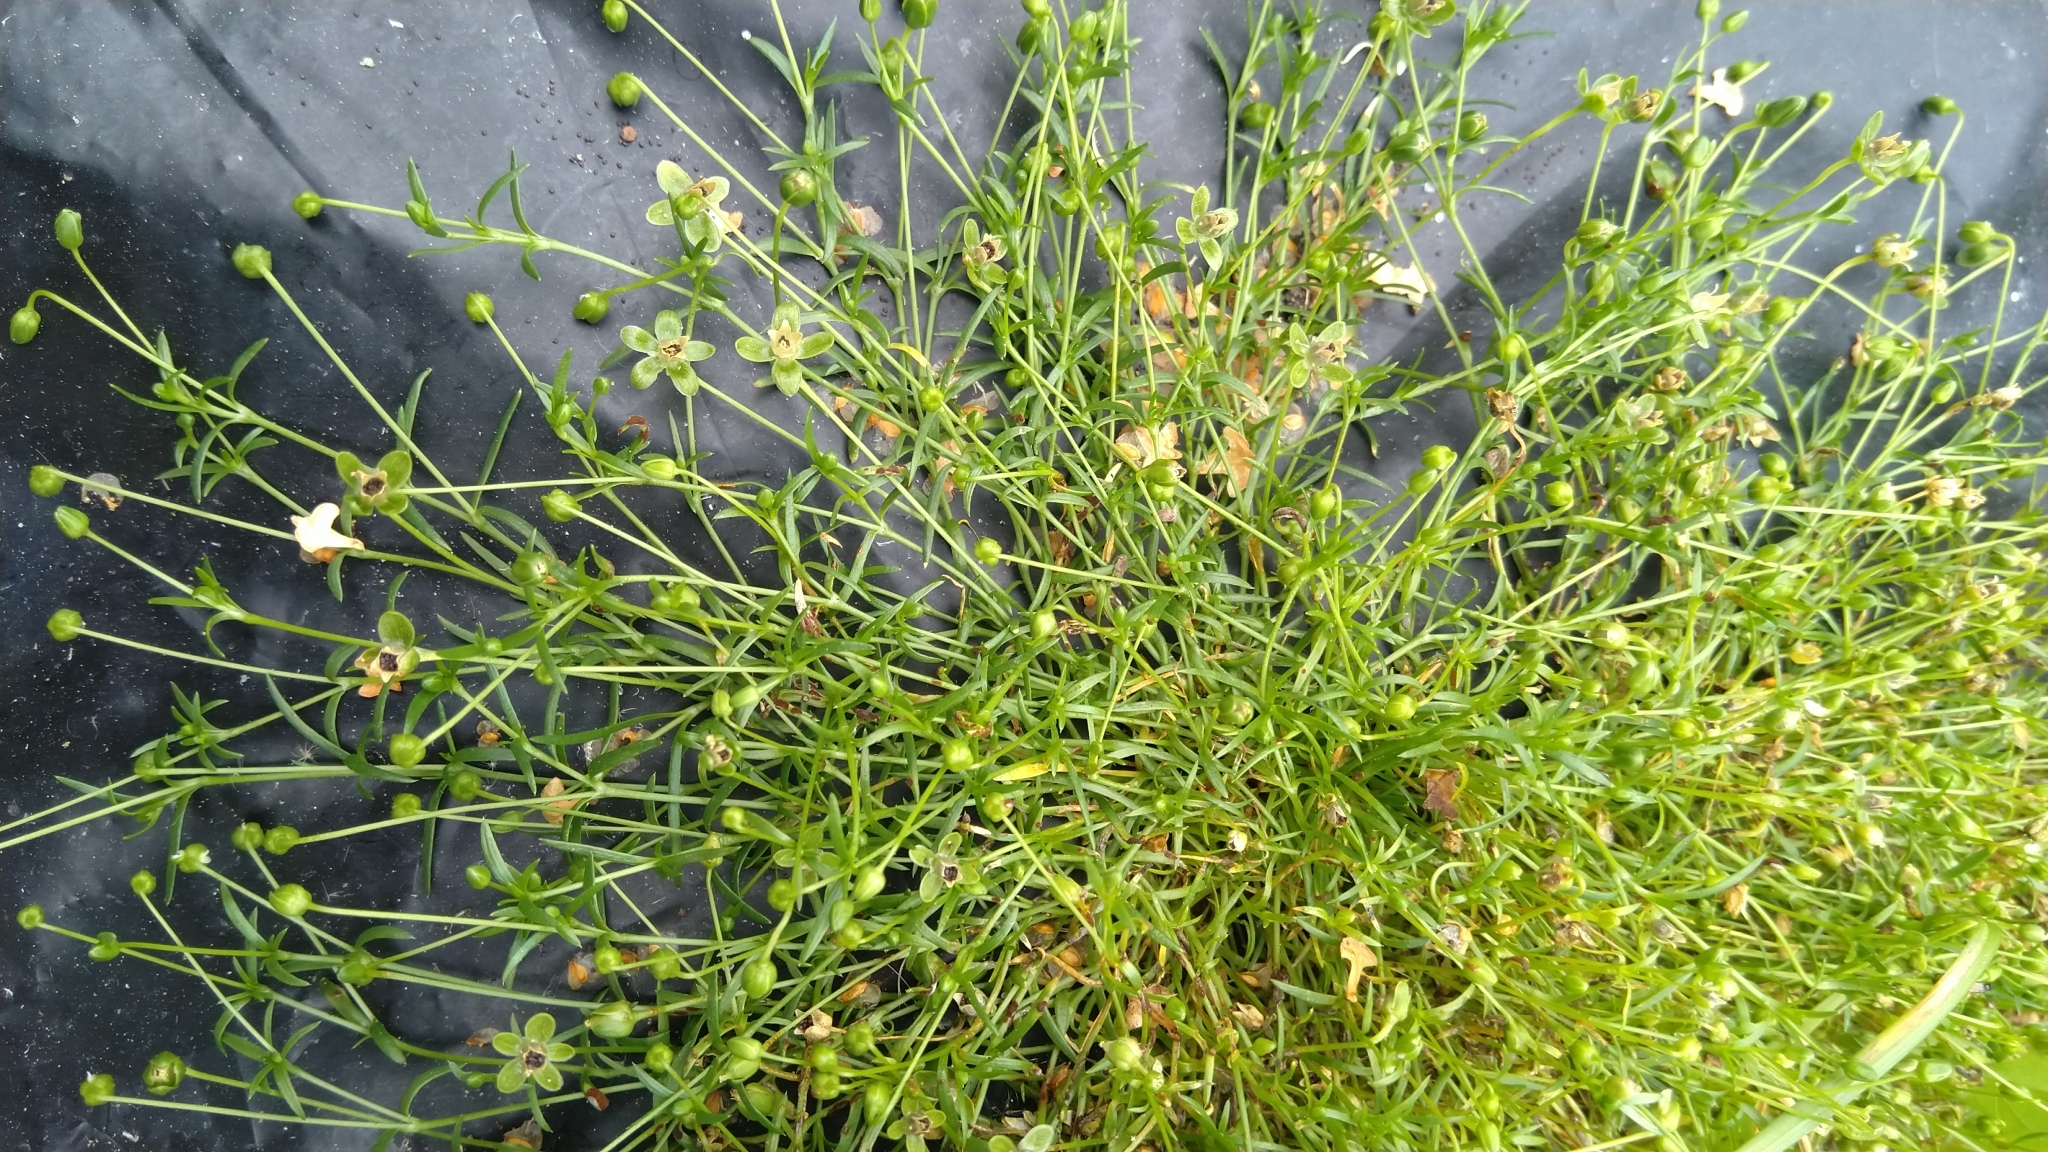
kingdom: Plantae
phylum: Tracheophyta
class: Magnoliopsida
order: Caryophyllales
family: Caryophyllaceae
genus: Sagina
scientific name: Sagina procumbens
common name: Procumbent pearlwort
